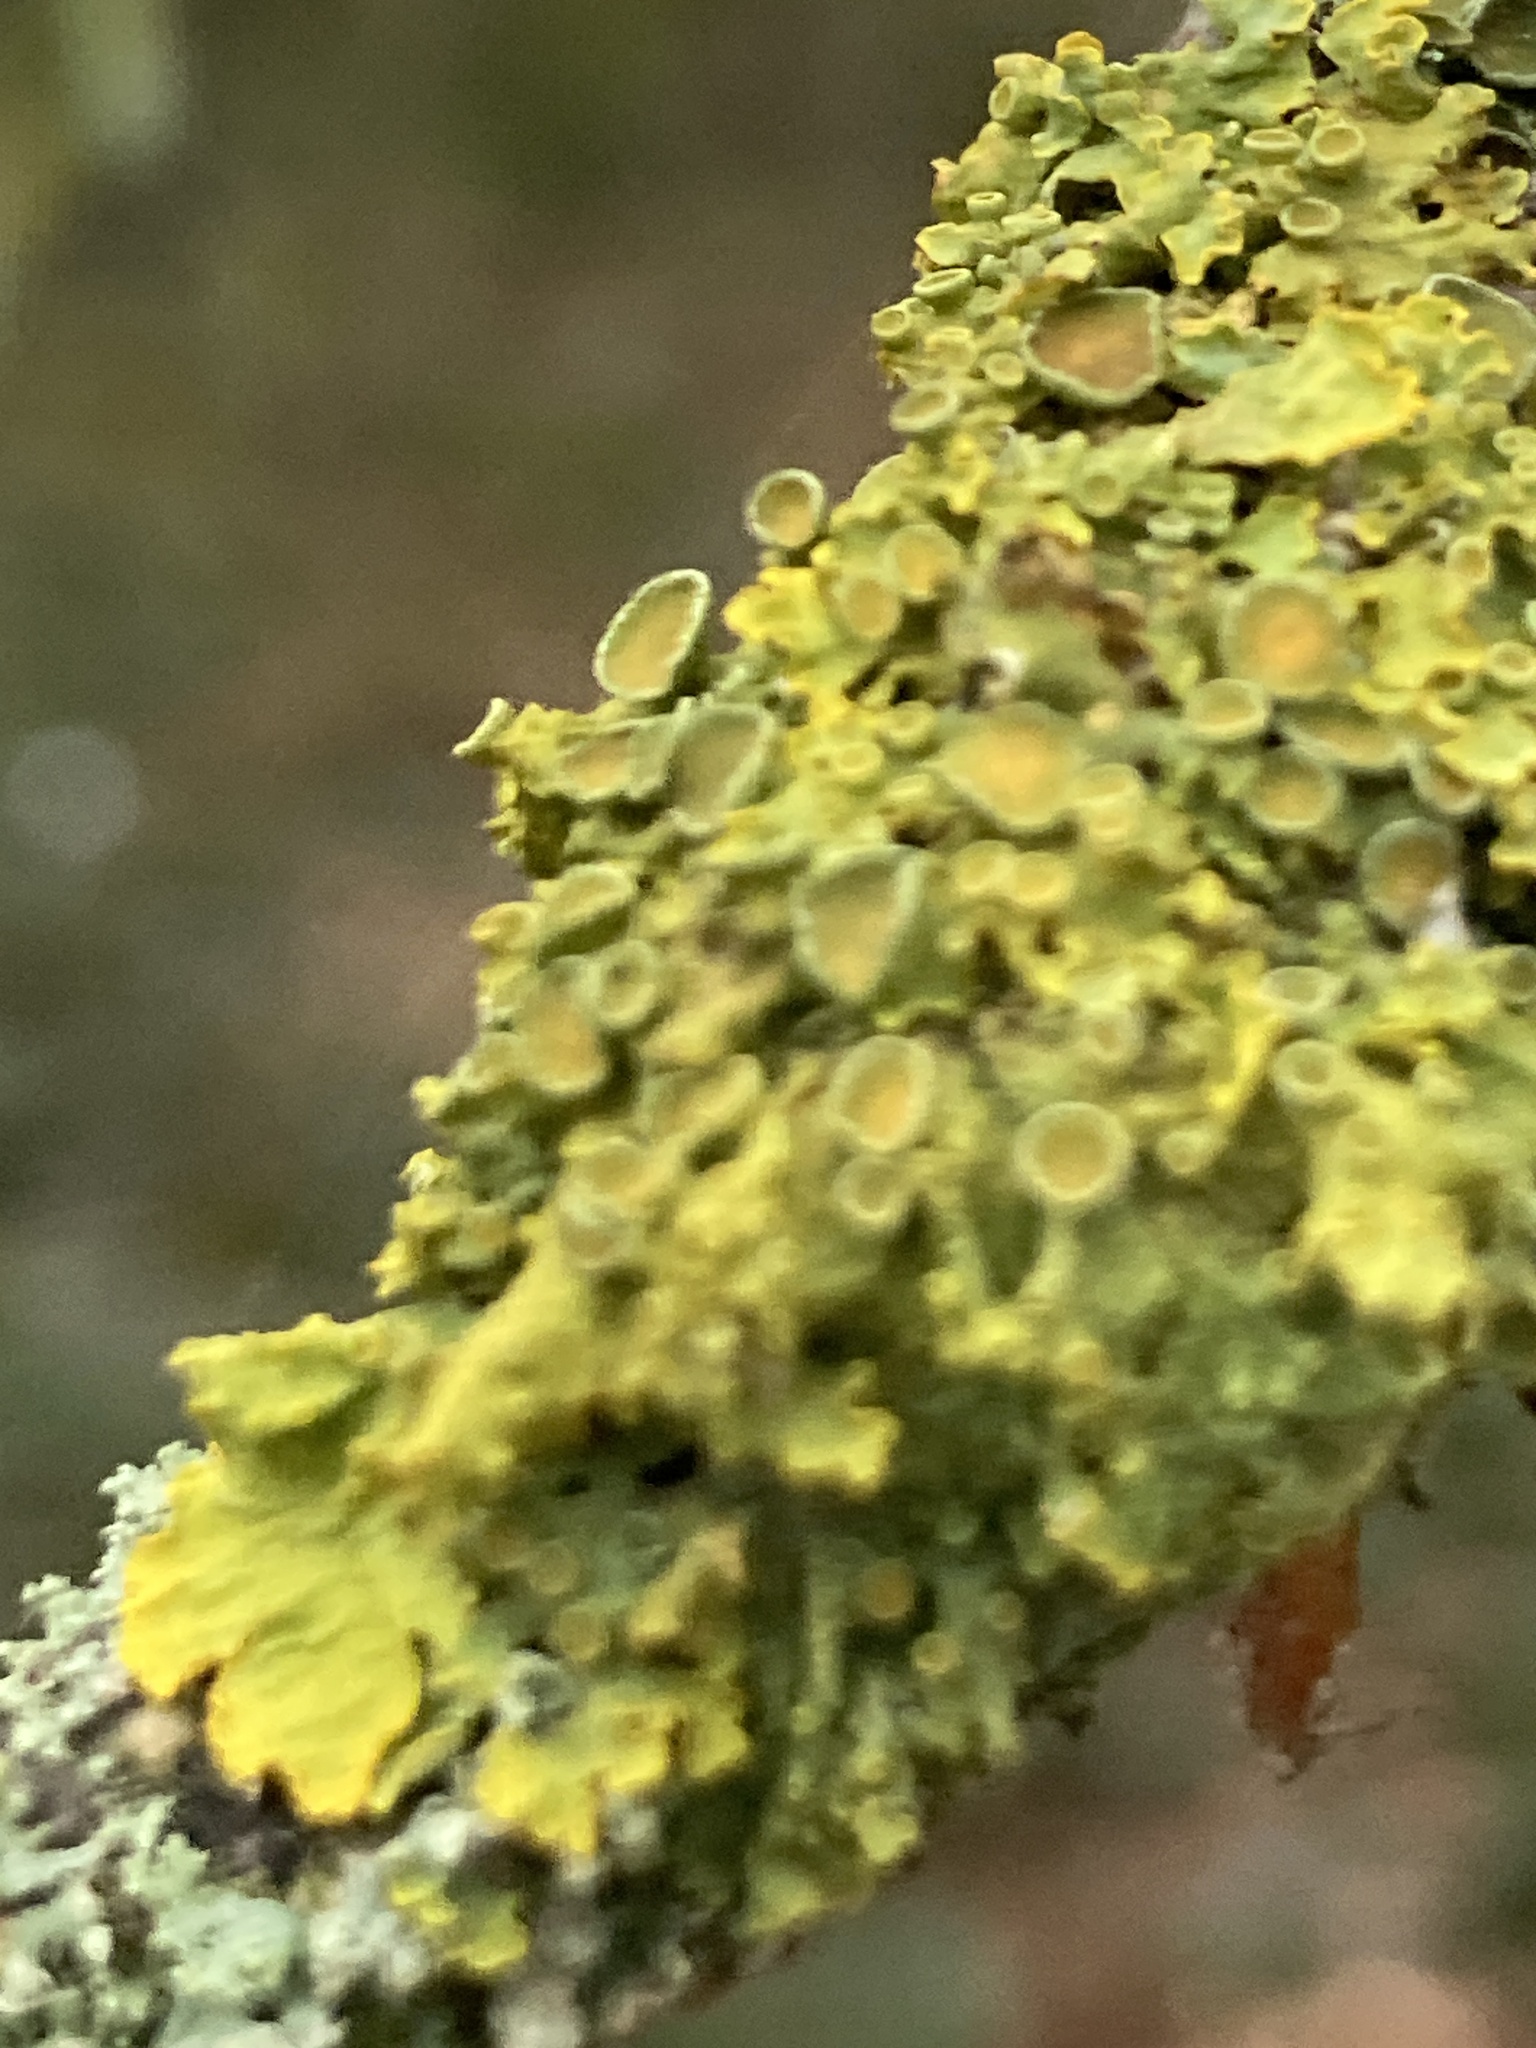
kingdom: Fungi
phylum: Ascomycota
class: Lecanoromycetes
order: Teloschistales
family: Teloschistaceae
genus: Xanthoria
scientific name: Xanthoria parietina
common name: Common orange lichen
